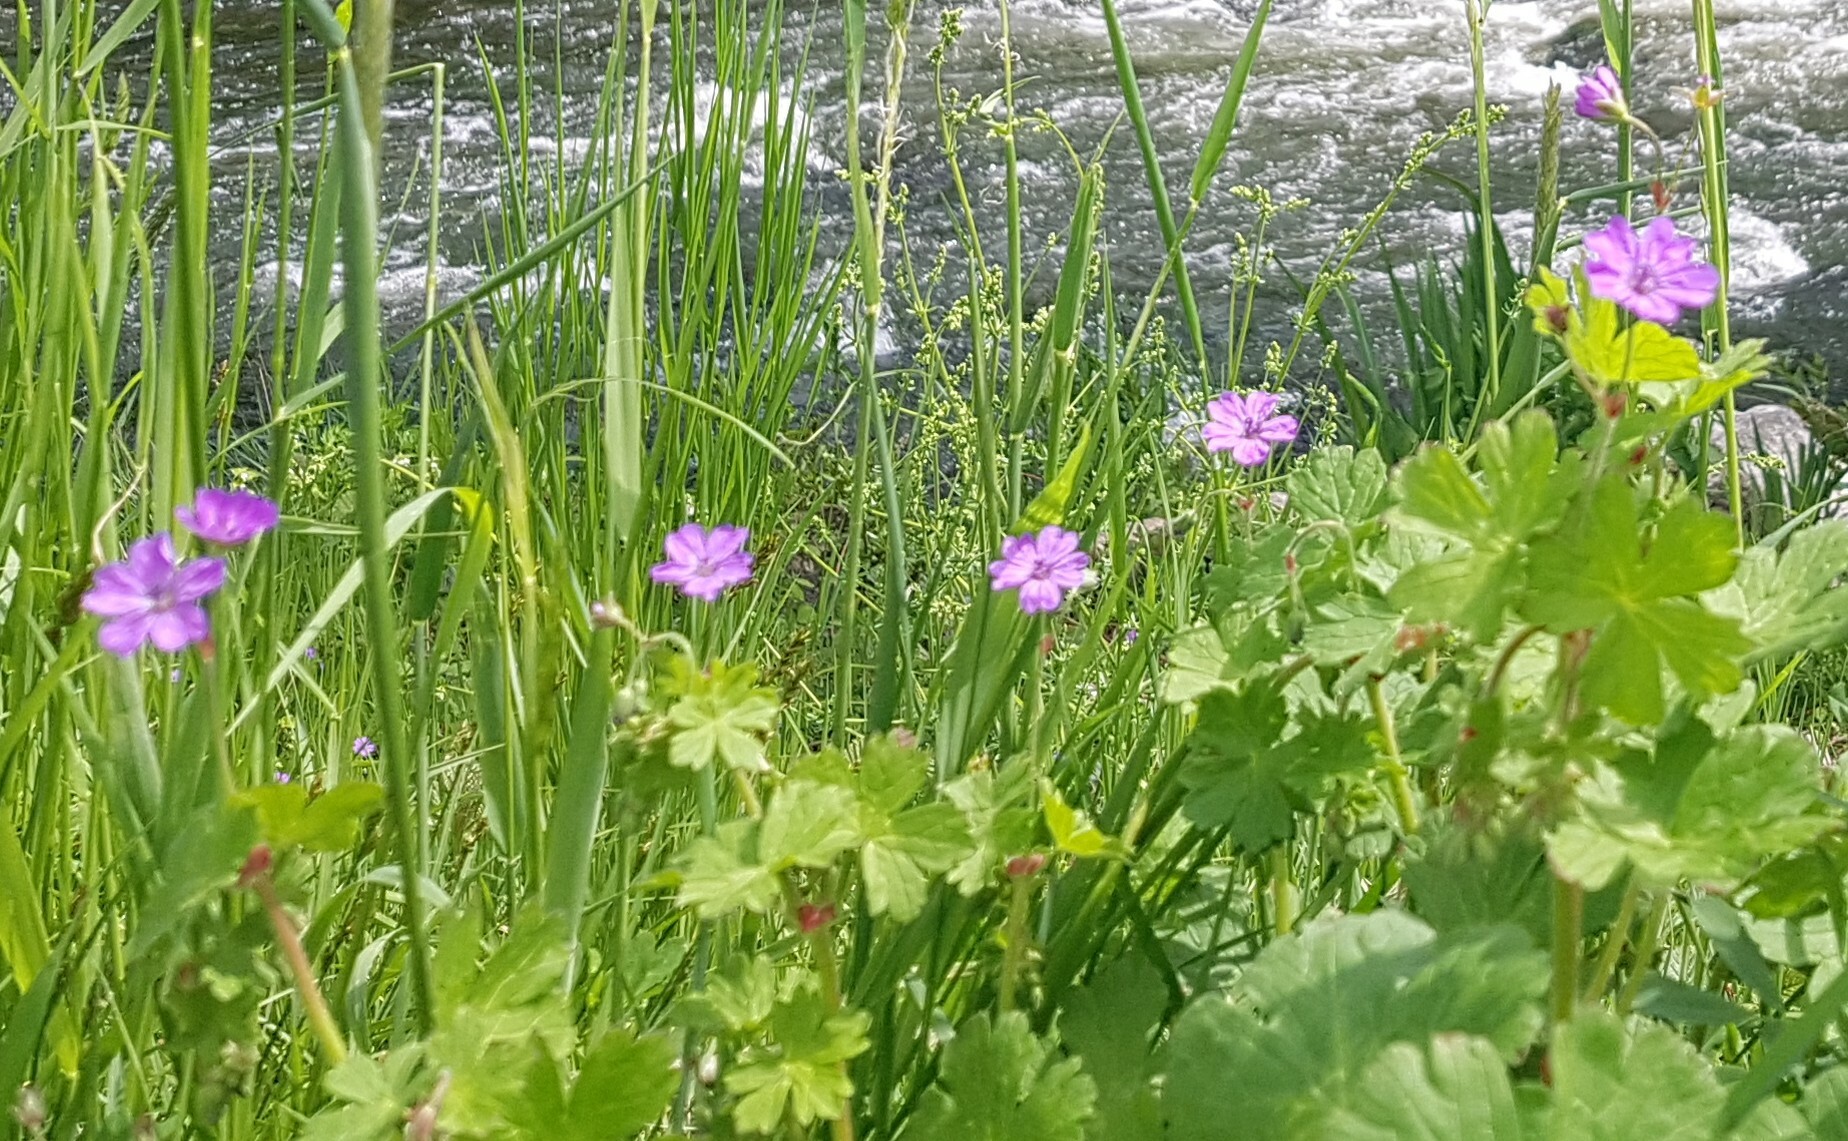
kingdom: Plantae
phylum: Tracheophyta
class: Magnoliopsida
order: Geraniales
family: Geraniaceae
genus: Geranium
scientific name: Geranium pyrenaicum
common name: Hedgerow crane's-bill
